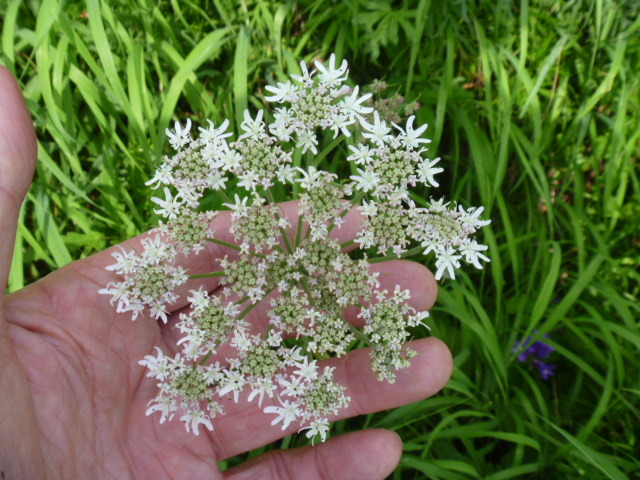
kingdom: Plantae
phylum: Tracheophyta
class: Magnoliopsida
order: Apiales
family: Apiaceae
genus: Heracleum
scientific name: Heracleum moellendorffii
